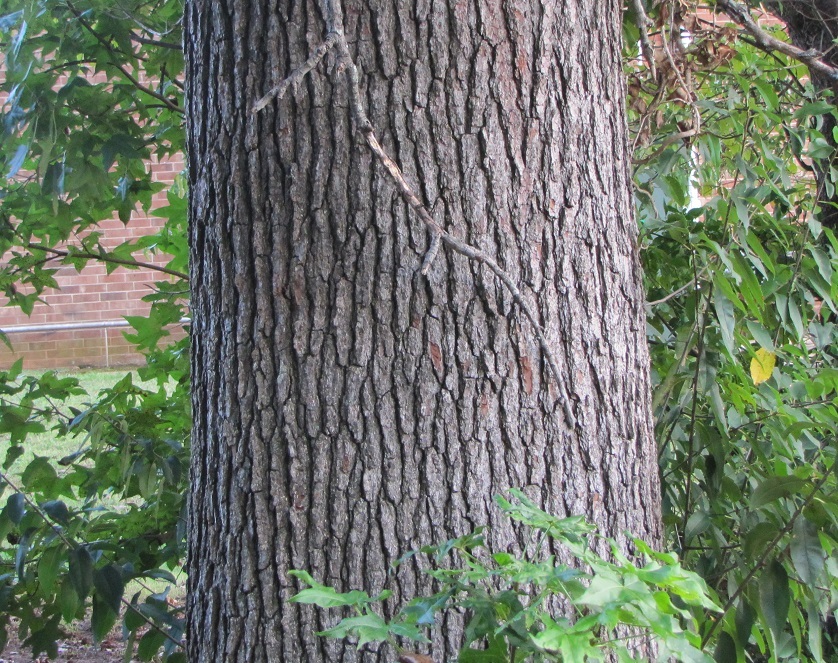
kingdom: Plantae
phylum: Tracheophyta
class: Magnoliopsida
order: Saxifragales
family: Altingiaceae
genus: Liquidambar
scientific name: Liquidambar styraciflua
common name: Sweet gum
